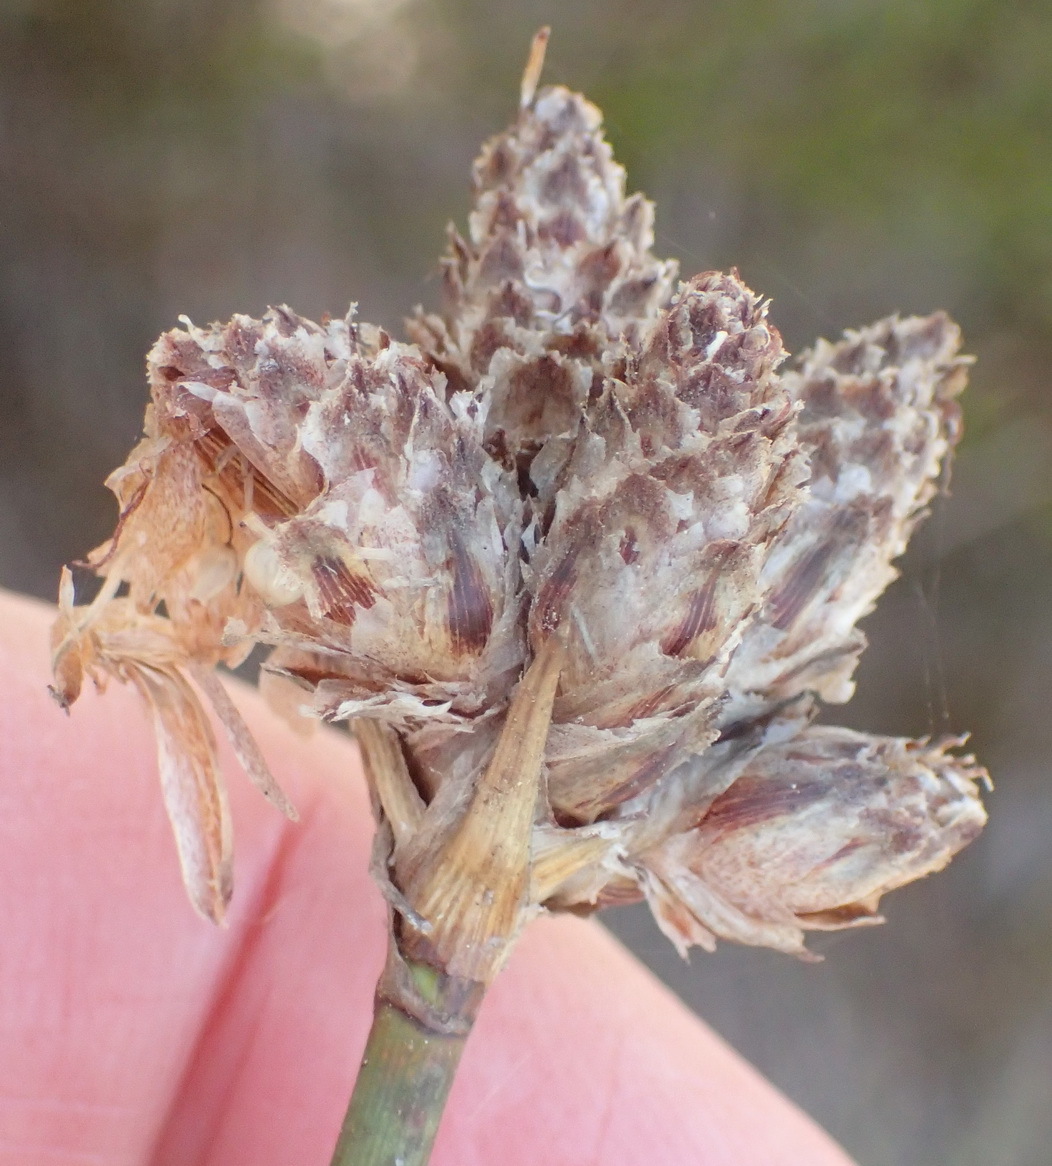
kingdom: Plantae
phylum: Tracheophyta
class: Liliopsida
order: Poales
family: Cyperaceae
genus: Hellmuthia
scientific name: Hellmuthia membranacea
